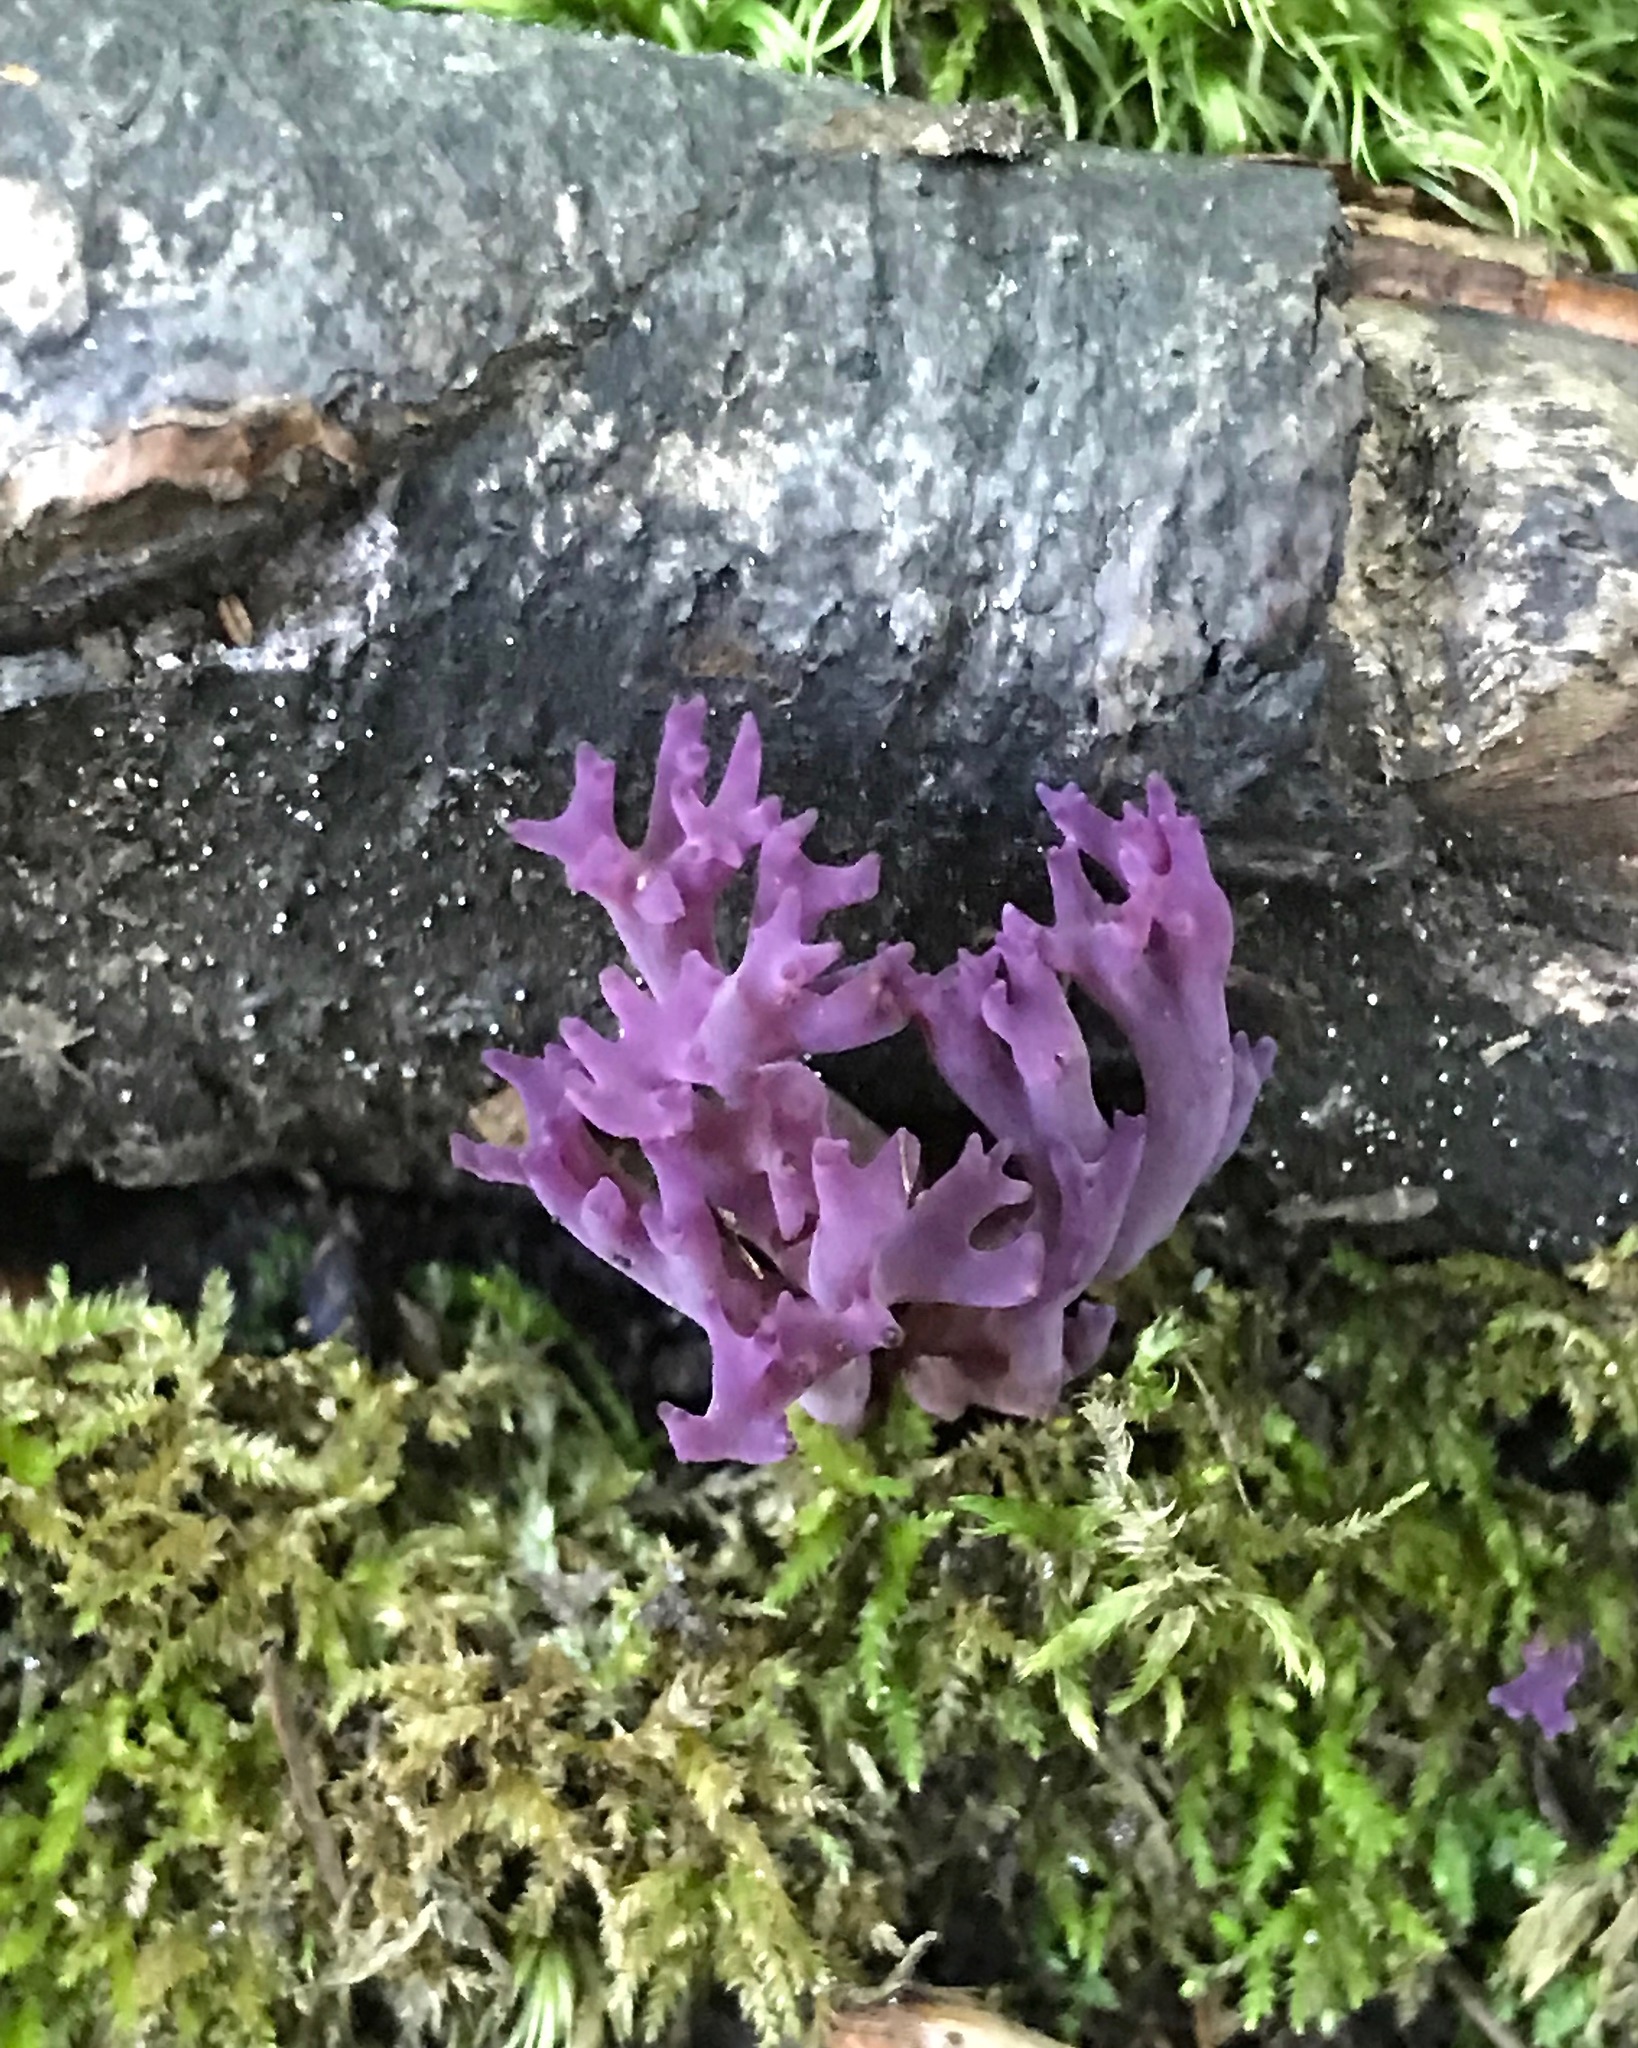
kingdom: Fungi
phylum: Basidiomycota
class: Agaricomycetes
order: Agaricales
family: Clavariaceae
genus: Clavaria
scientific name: Clavaria zollingeri
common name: Violet coral
